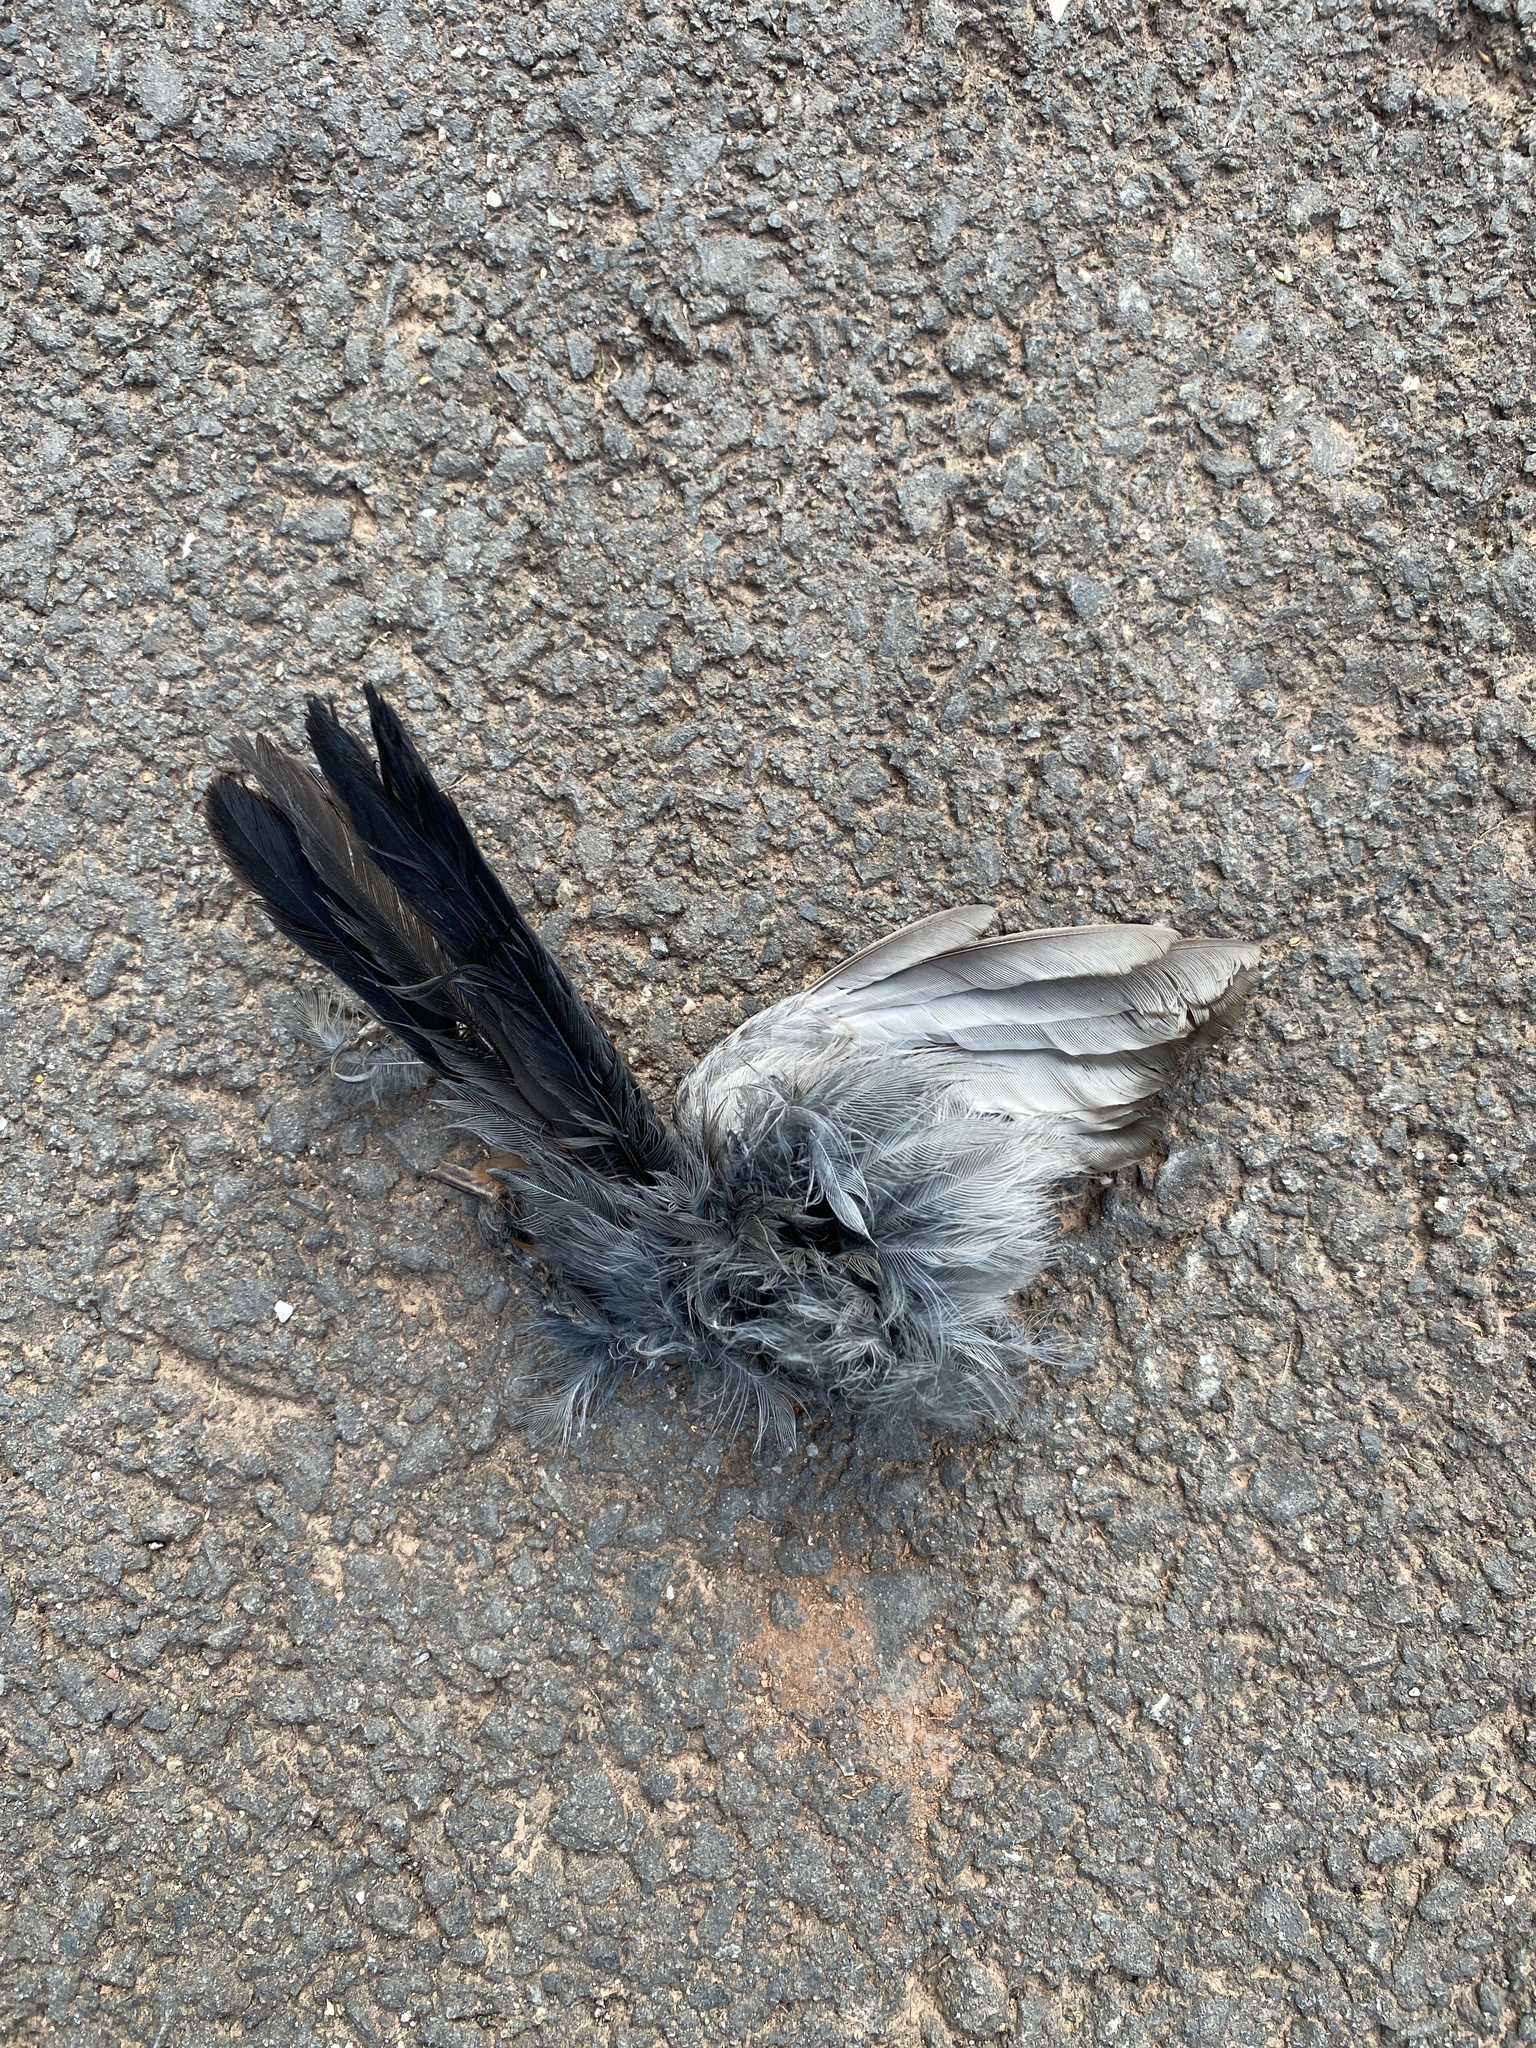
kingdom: Animalia
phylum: Chordata
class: Aves
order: Passeriformes
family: Mimidae
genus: Dumetella
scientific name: Dumetella carolinensis
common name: Gray catbird
